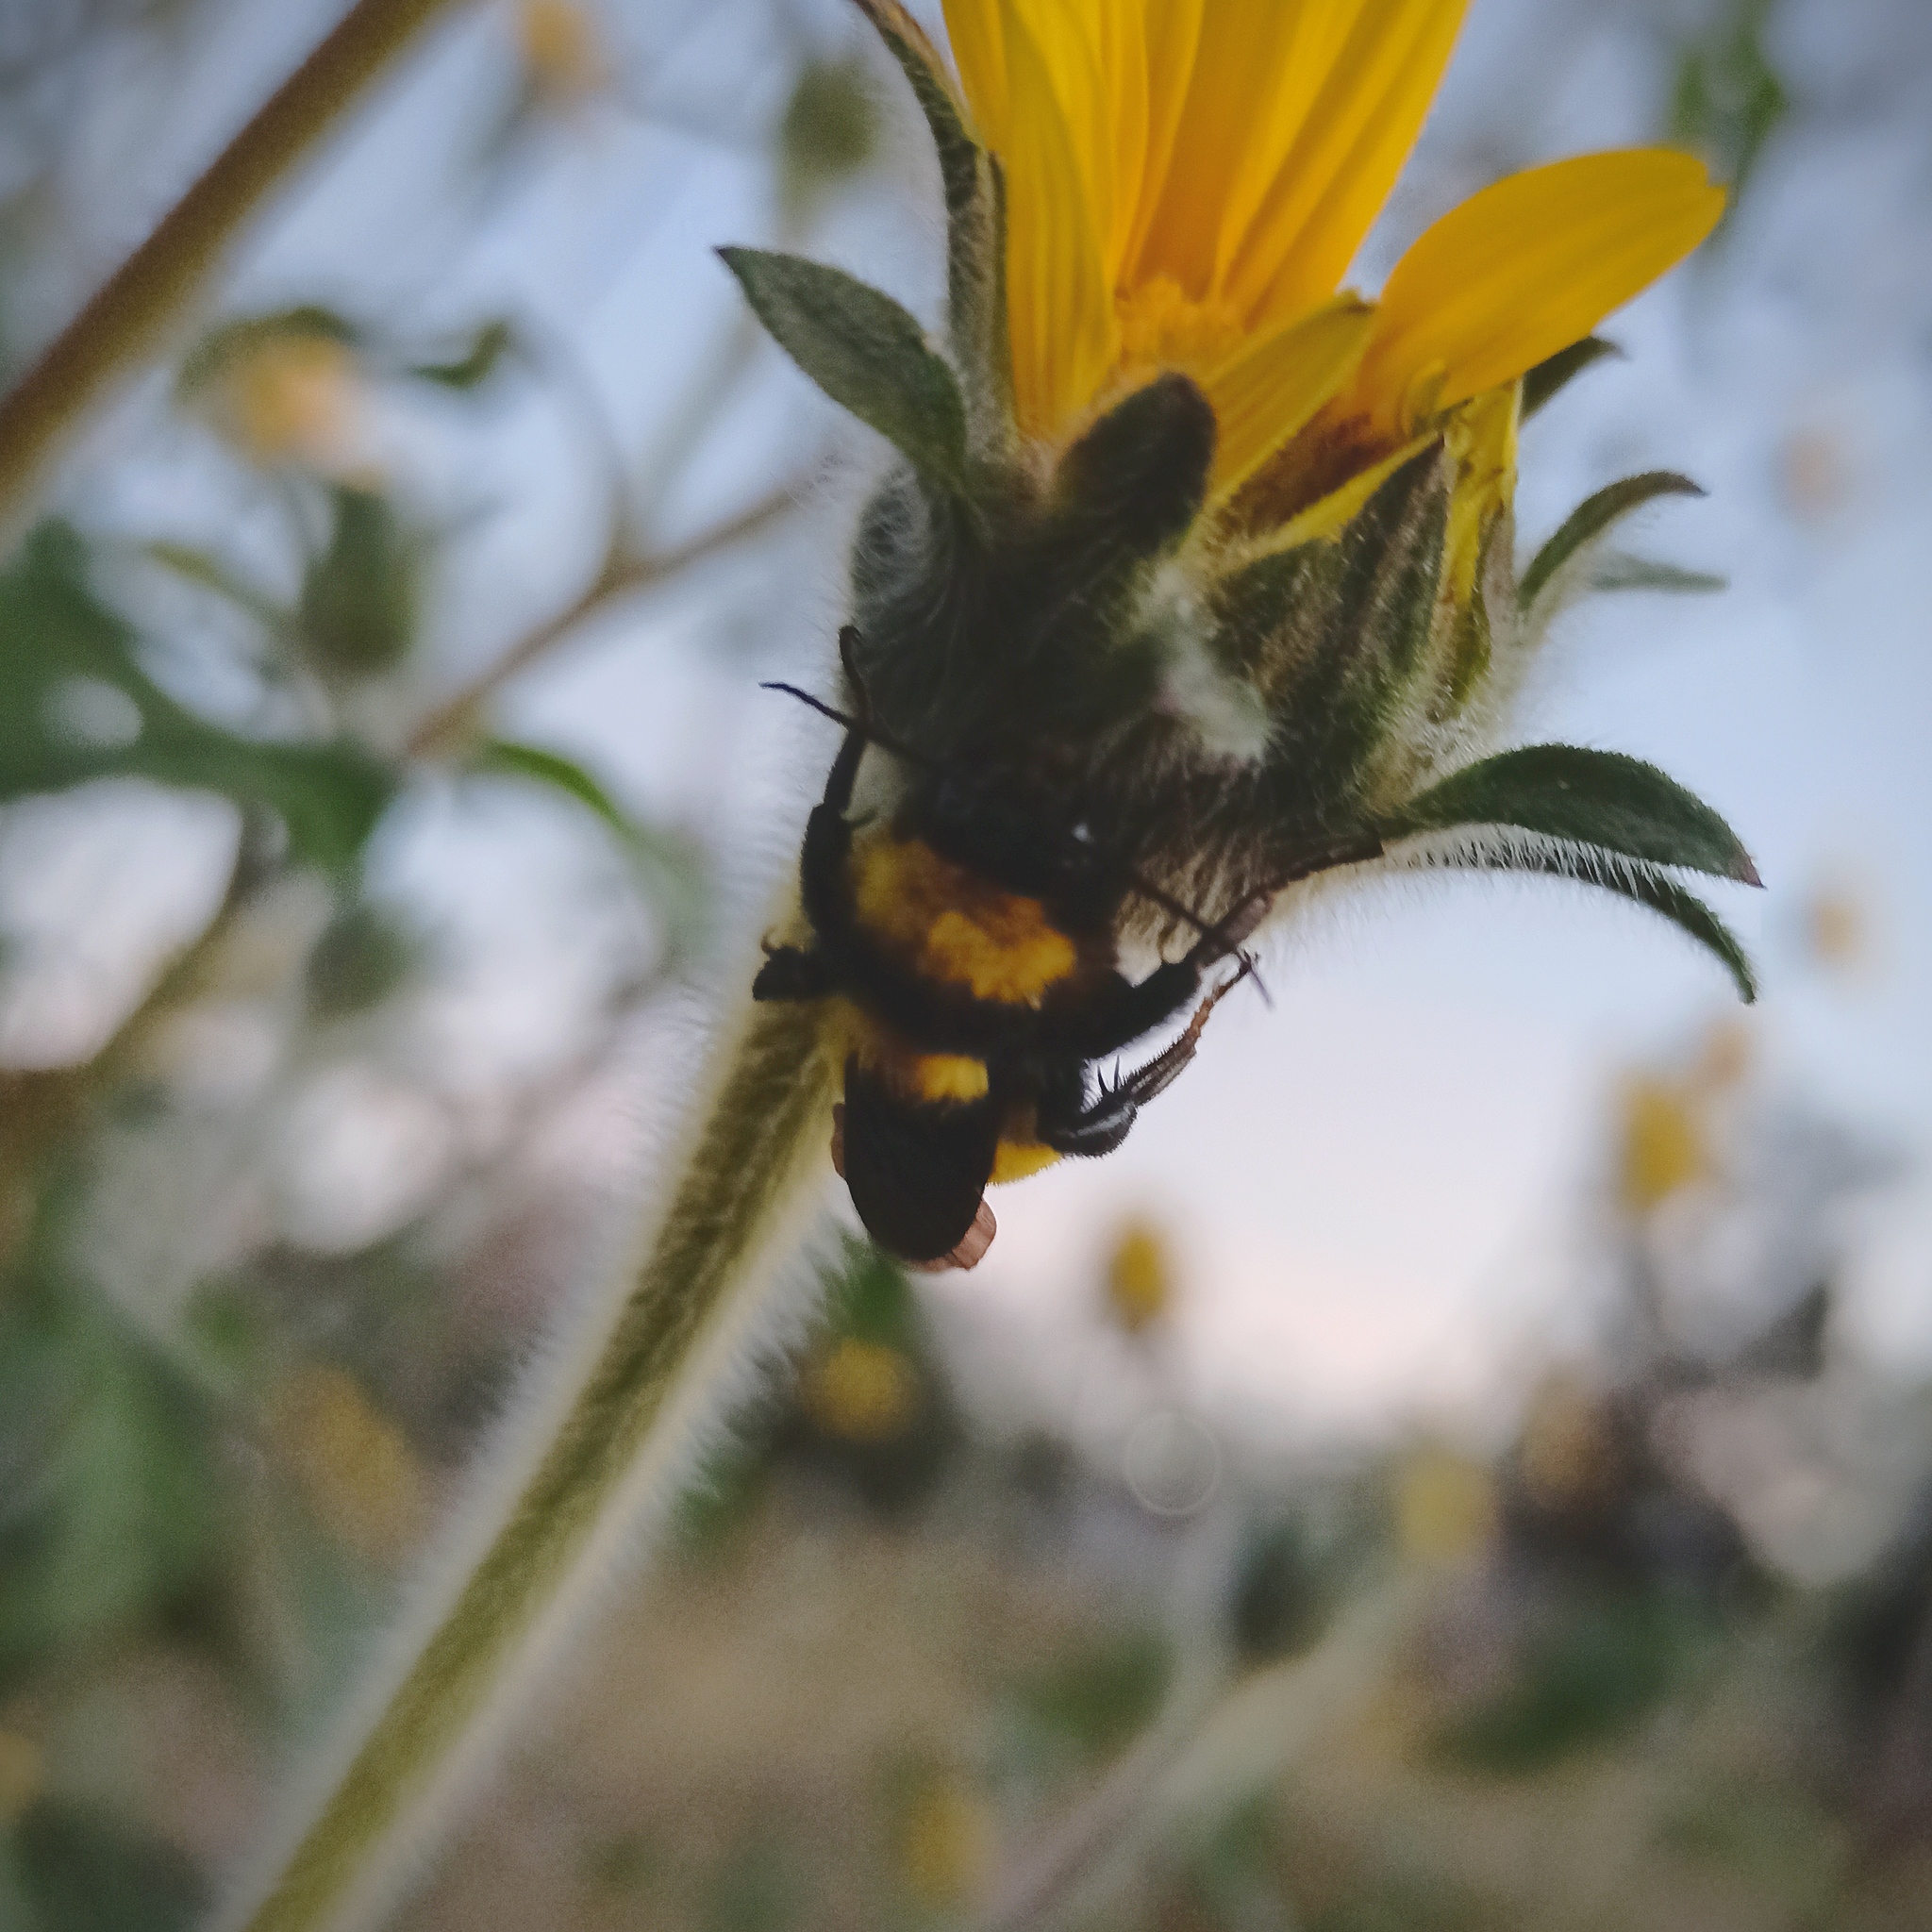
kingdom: Animalia
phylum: Arthropoda
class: Insecta
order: Hymenoptera
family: Apidae
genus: Bombus
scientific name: Bombus sonorus
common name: Sonoran bumble bee
